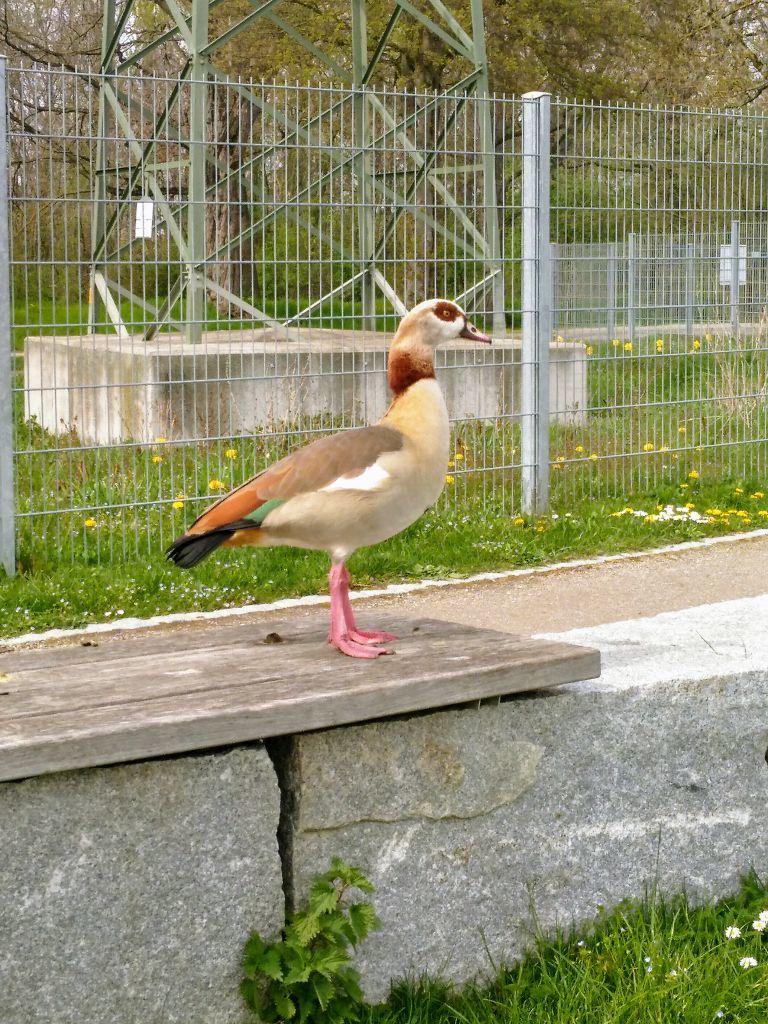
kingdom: Animalia
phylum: Chordata
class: Aves
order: Anseriformes
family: Anatidae
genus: Alopochen
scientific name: Alopochen aegyptiaca
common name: Egyptian goose
